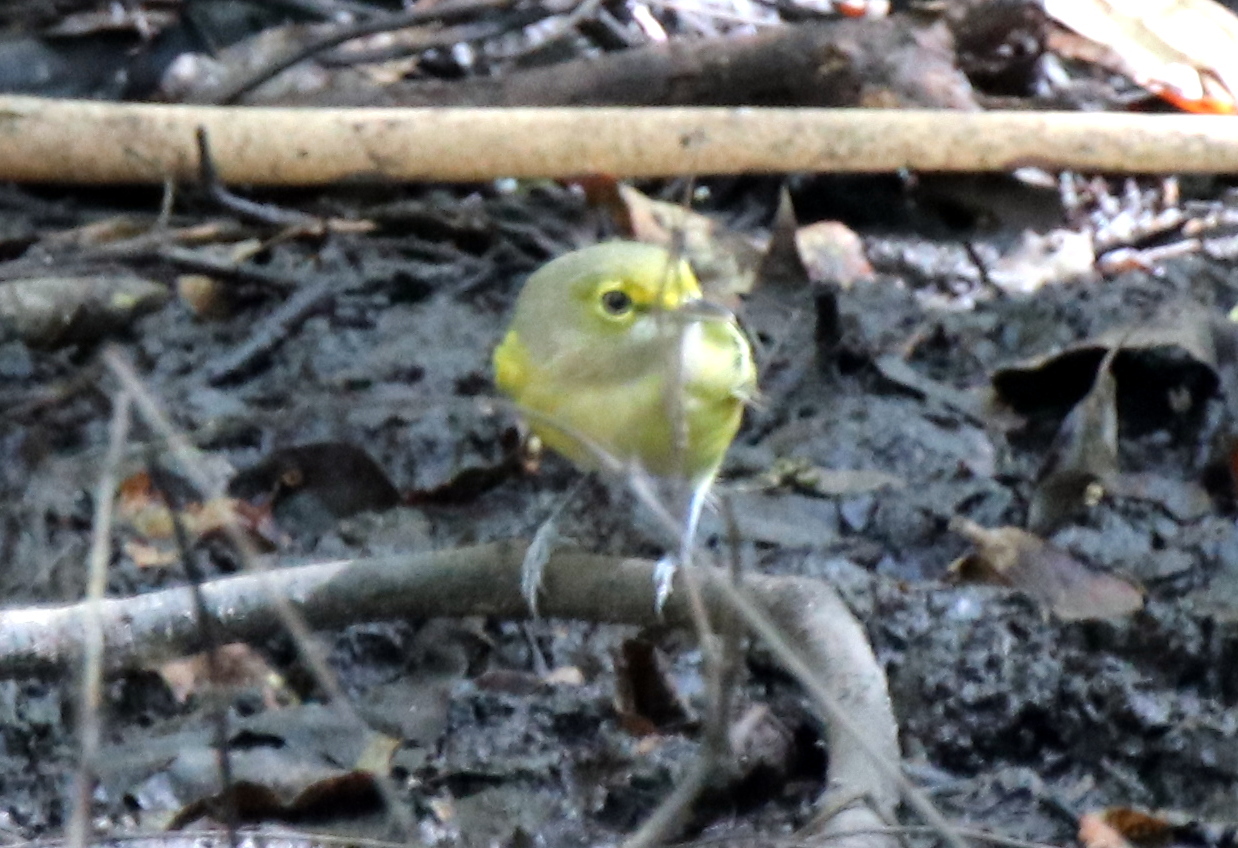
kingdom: Animalia
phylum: Chordata
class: Aves
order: Passeriformes
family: Vireonidae
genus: Vireo
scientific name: Vireo griseus
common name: White-eyed vireo
